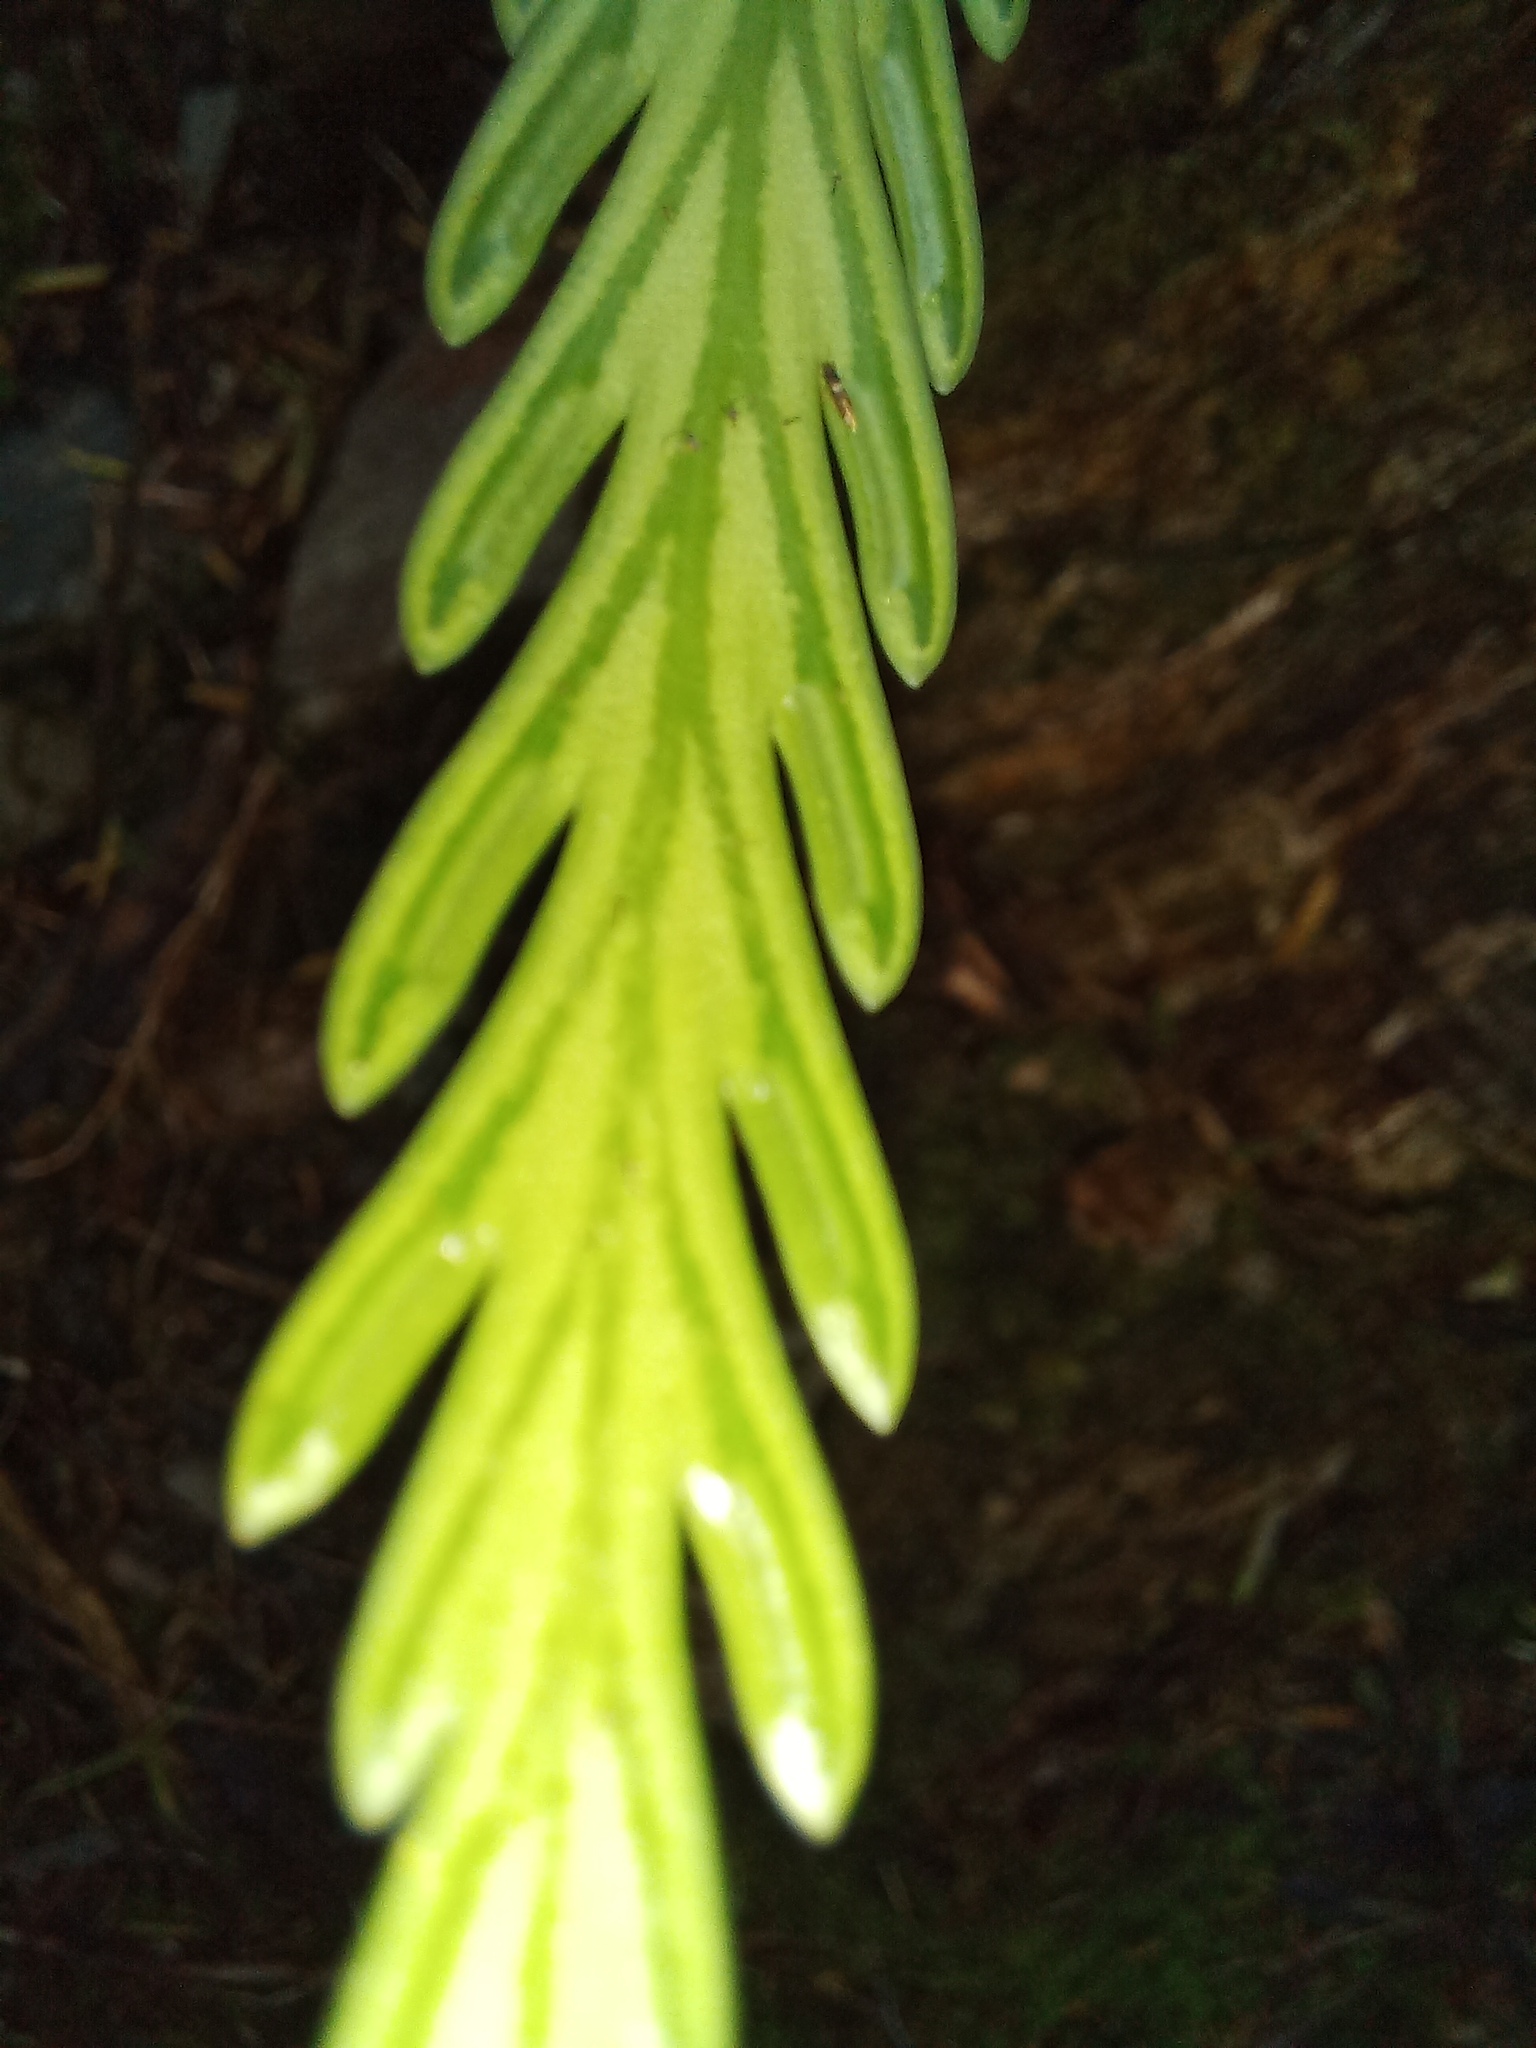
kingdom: Plantae
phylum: Tracheophyta
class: Polypodiopsida
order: Polypodiales
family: Aspleniaceae
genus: Asplenium
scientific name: Asplenium flaccidum
